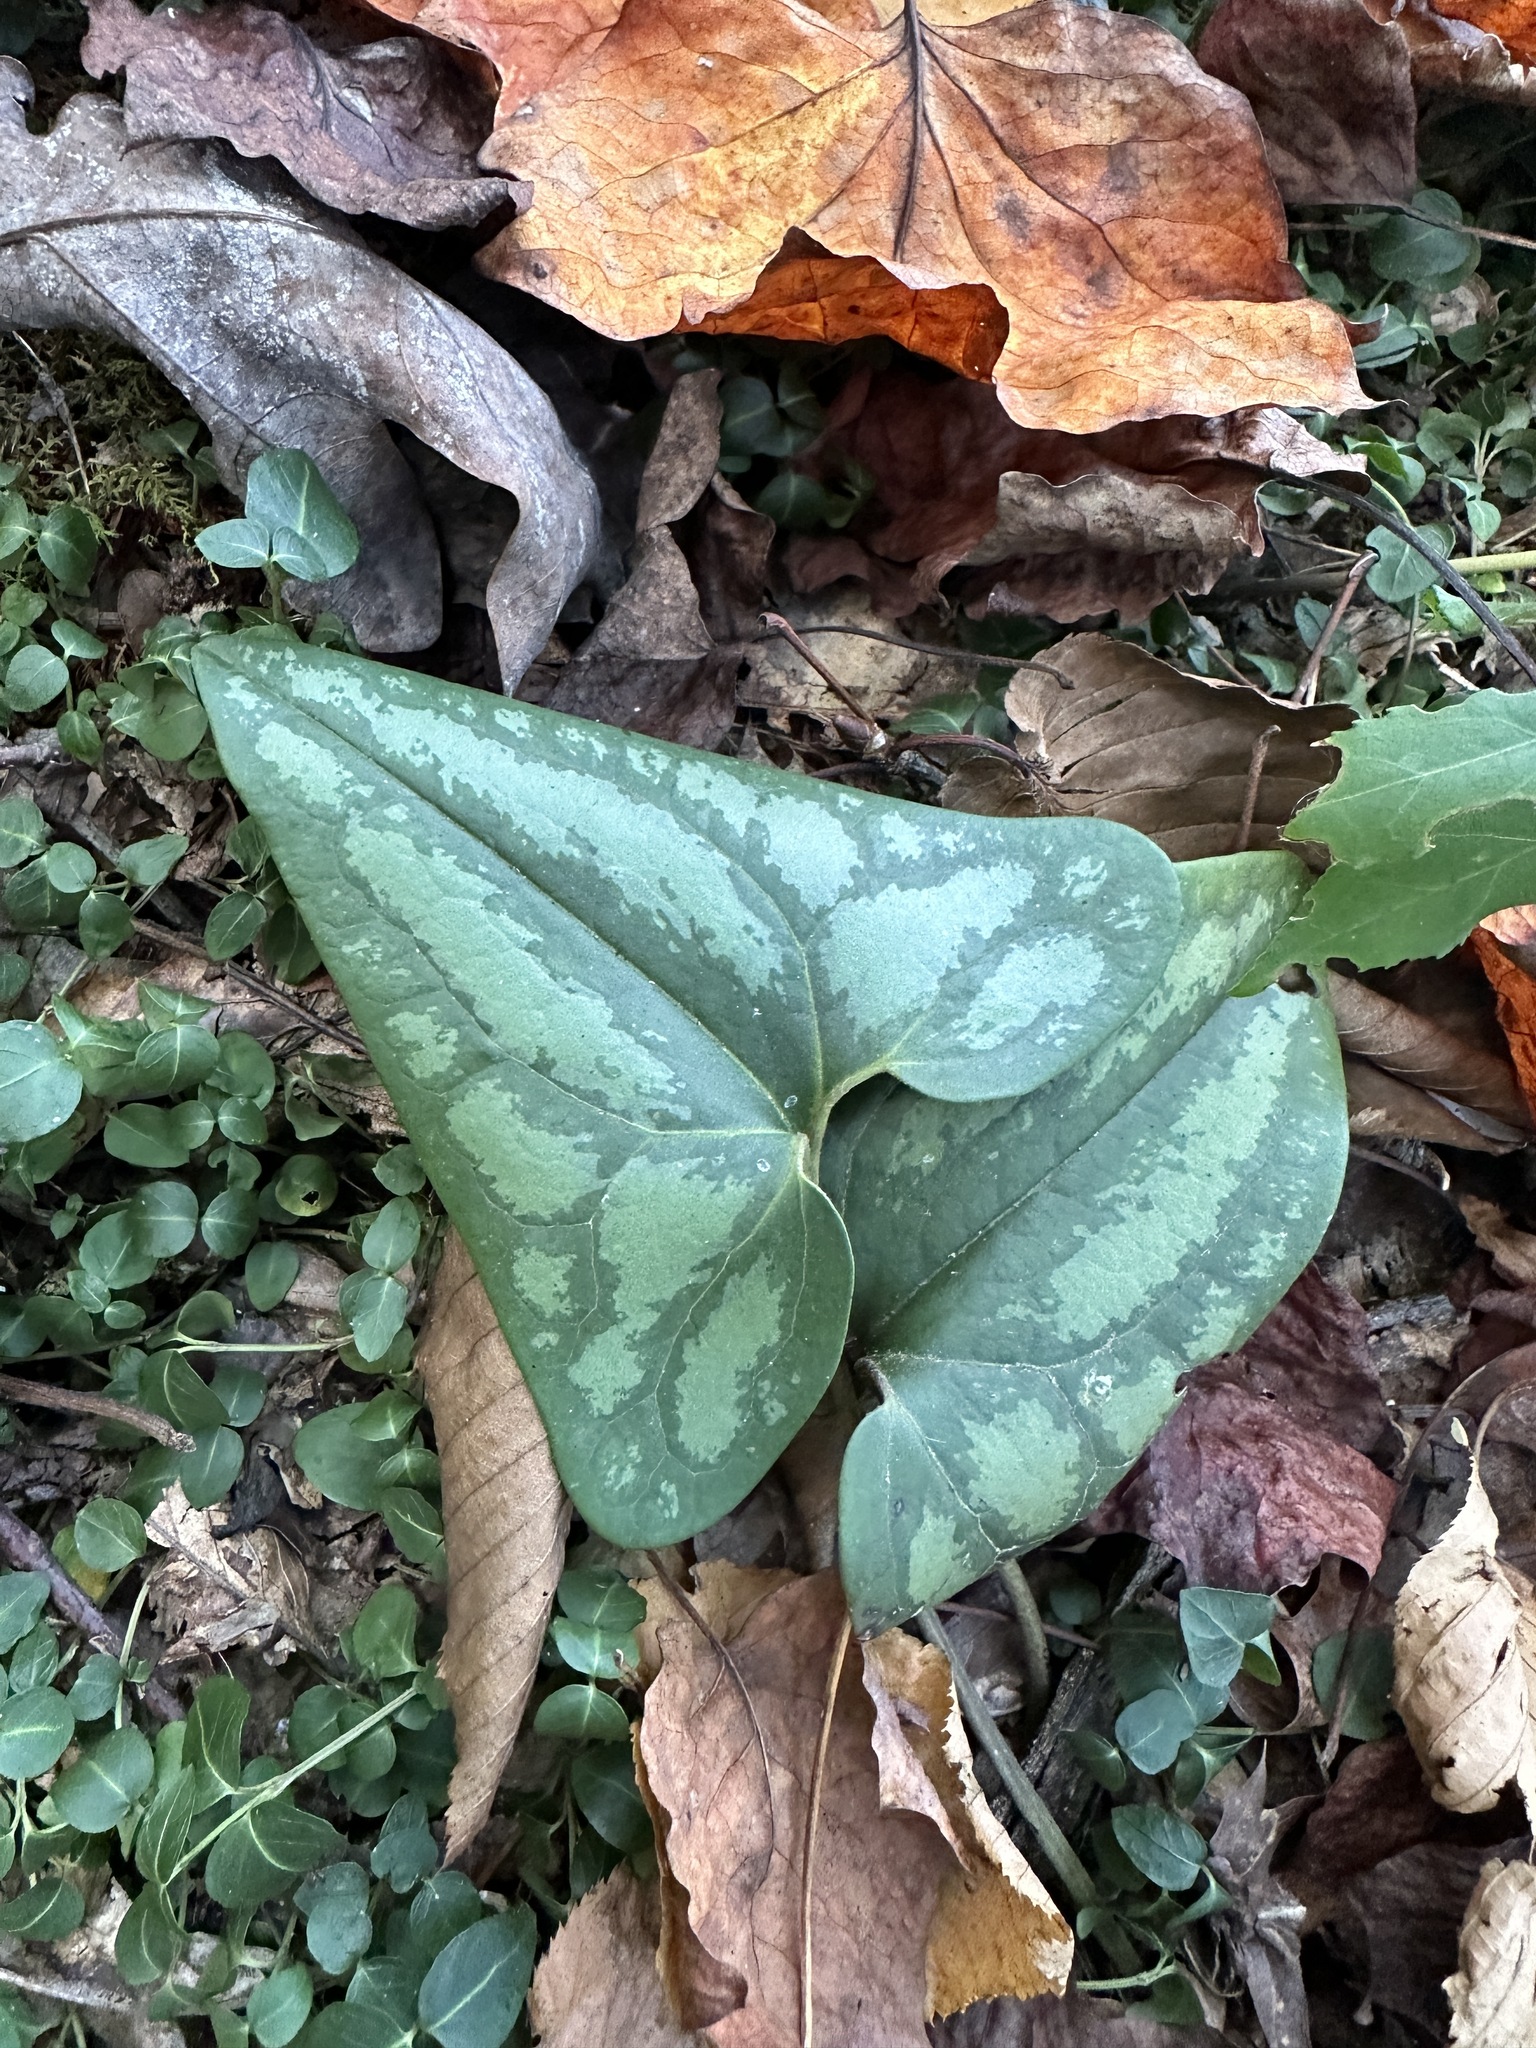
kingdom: Plantae
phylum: Tracheophyta
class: Magnoliopsida
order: Piperales
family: Aristolochiaceae
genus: Hexastylis
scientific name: Hexastylis arifolia
